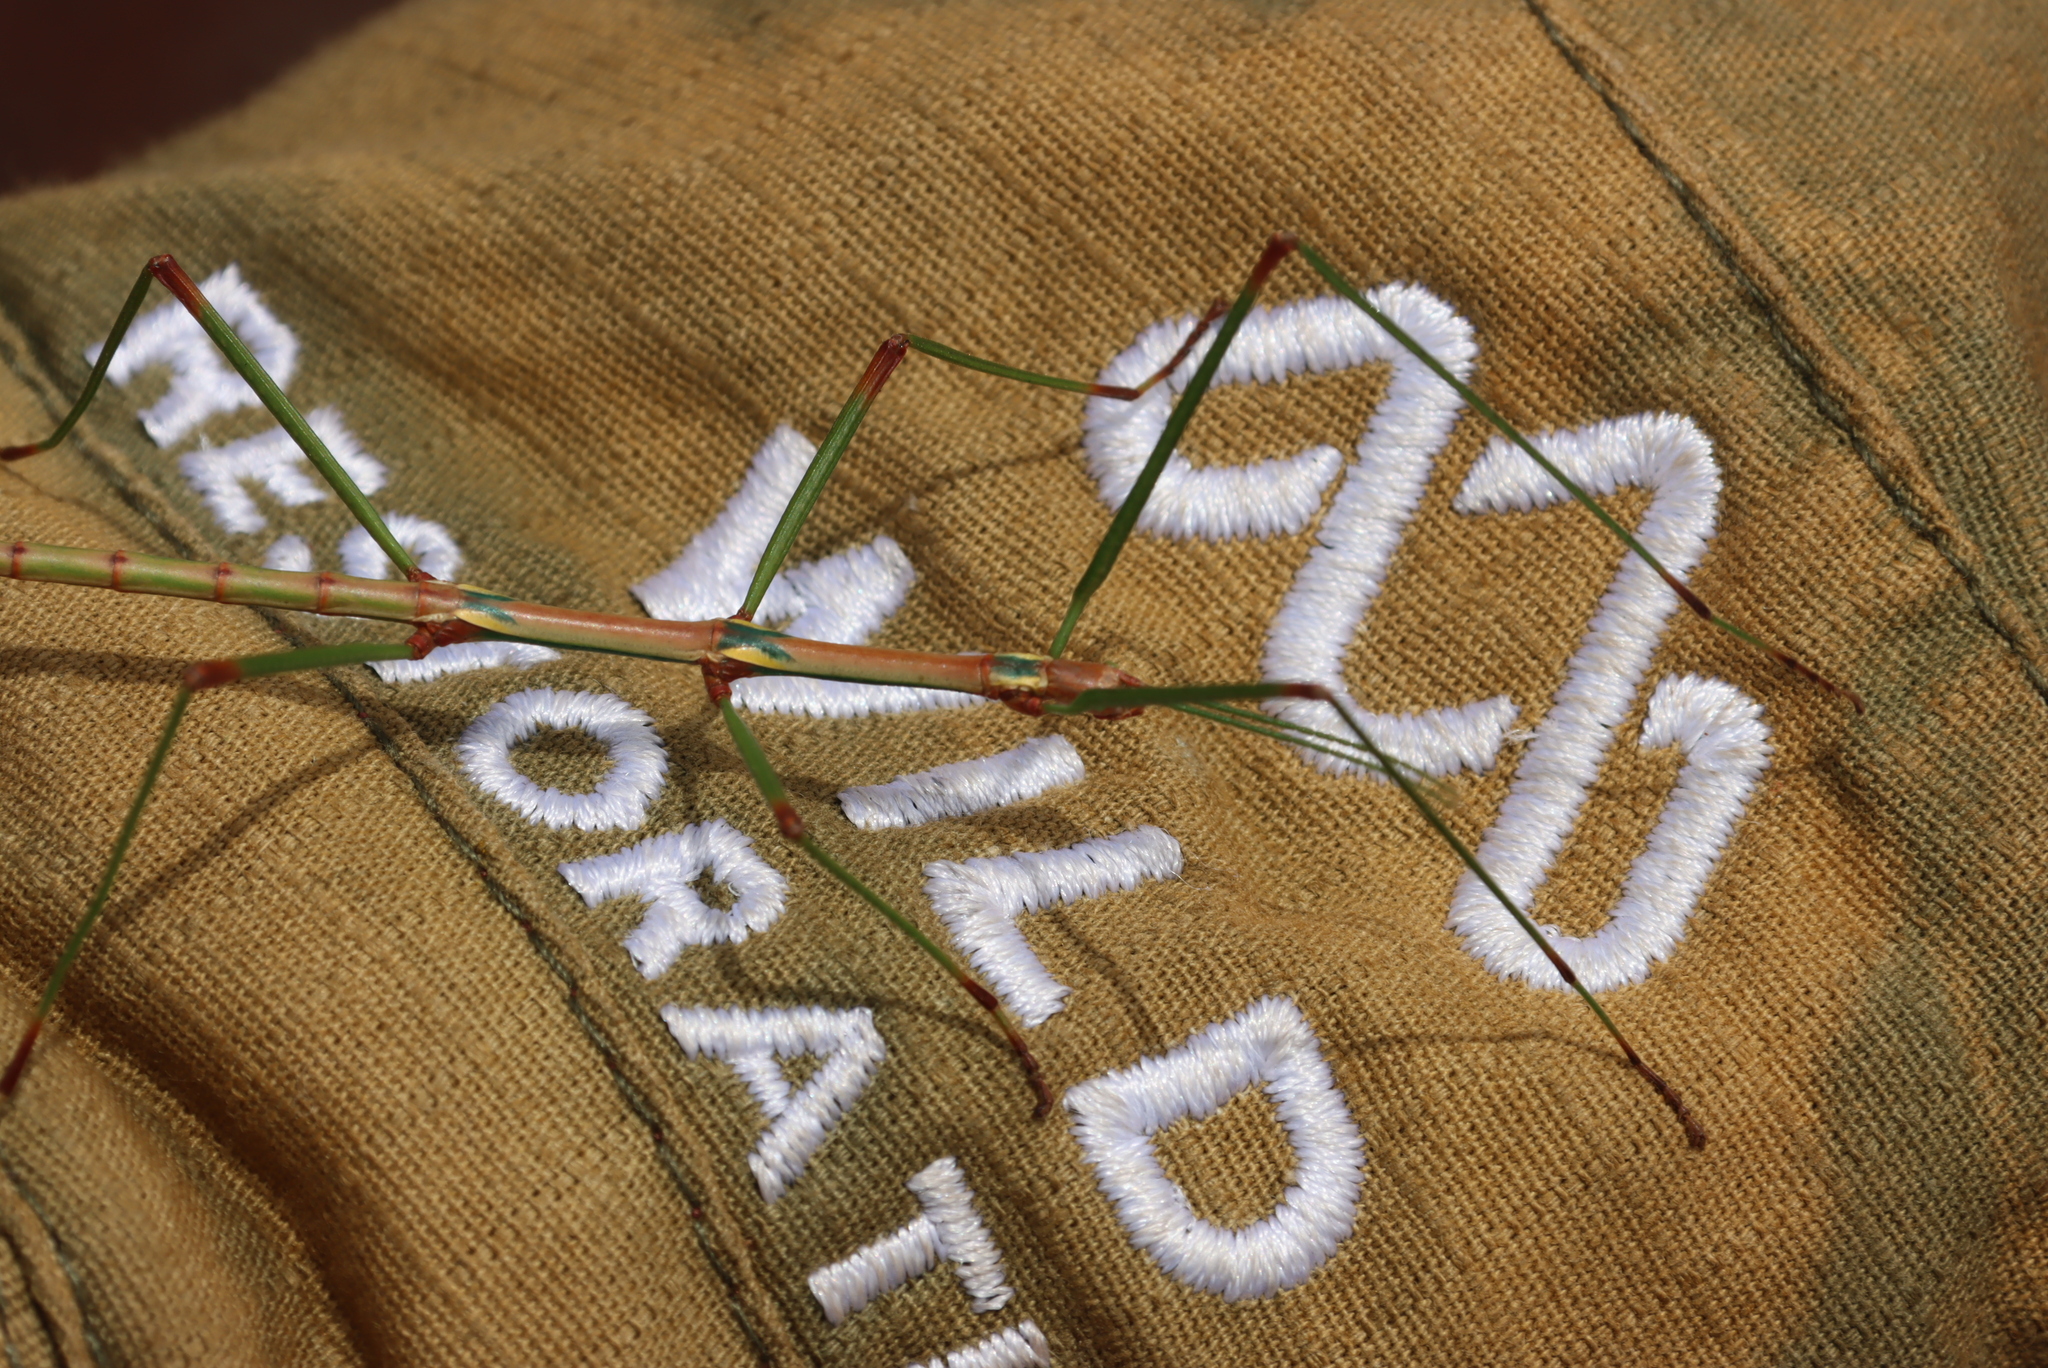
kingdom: Animalia
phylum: Arthropoda
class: Insecta
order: Phasmida
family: Bacillidae
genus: Phalces
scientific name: Phalces brevis
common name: Cape stick insect
